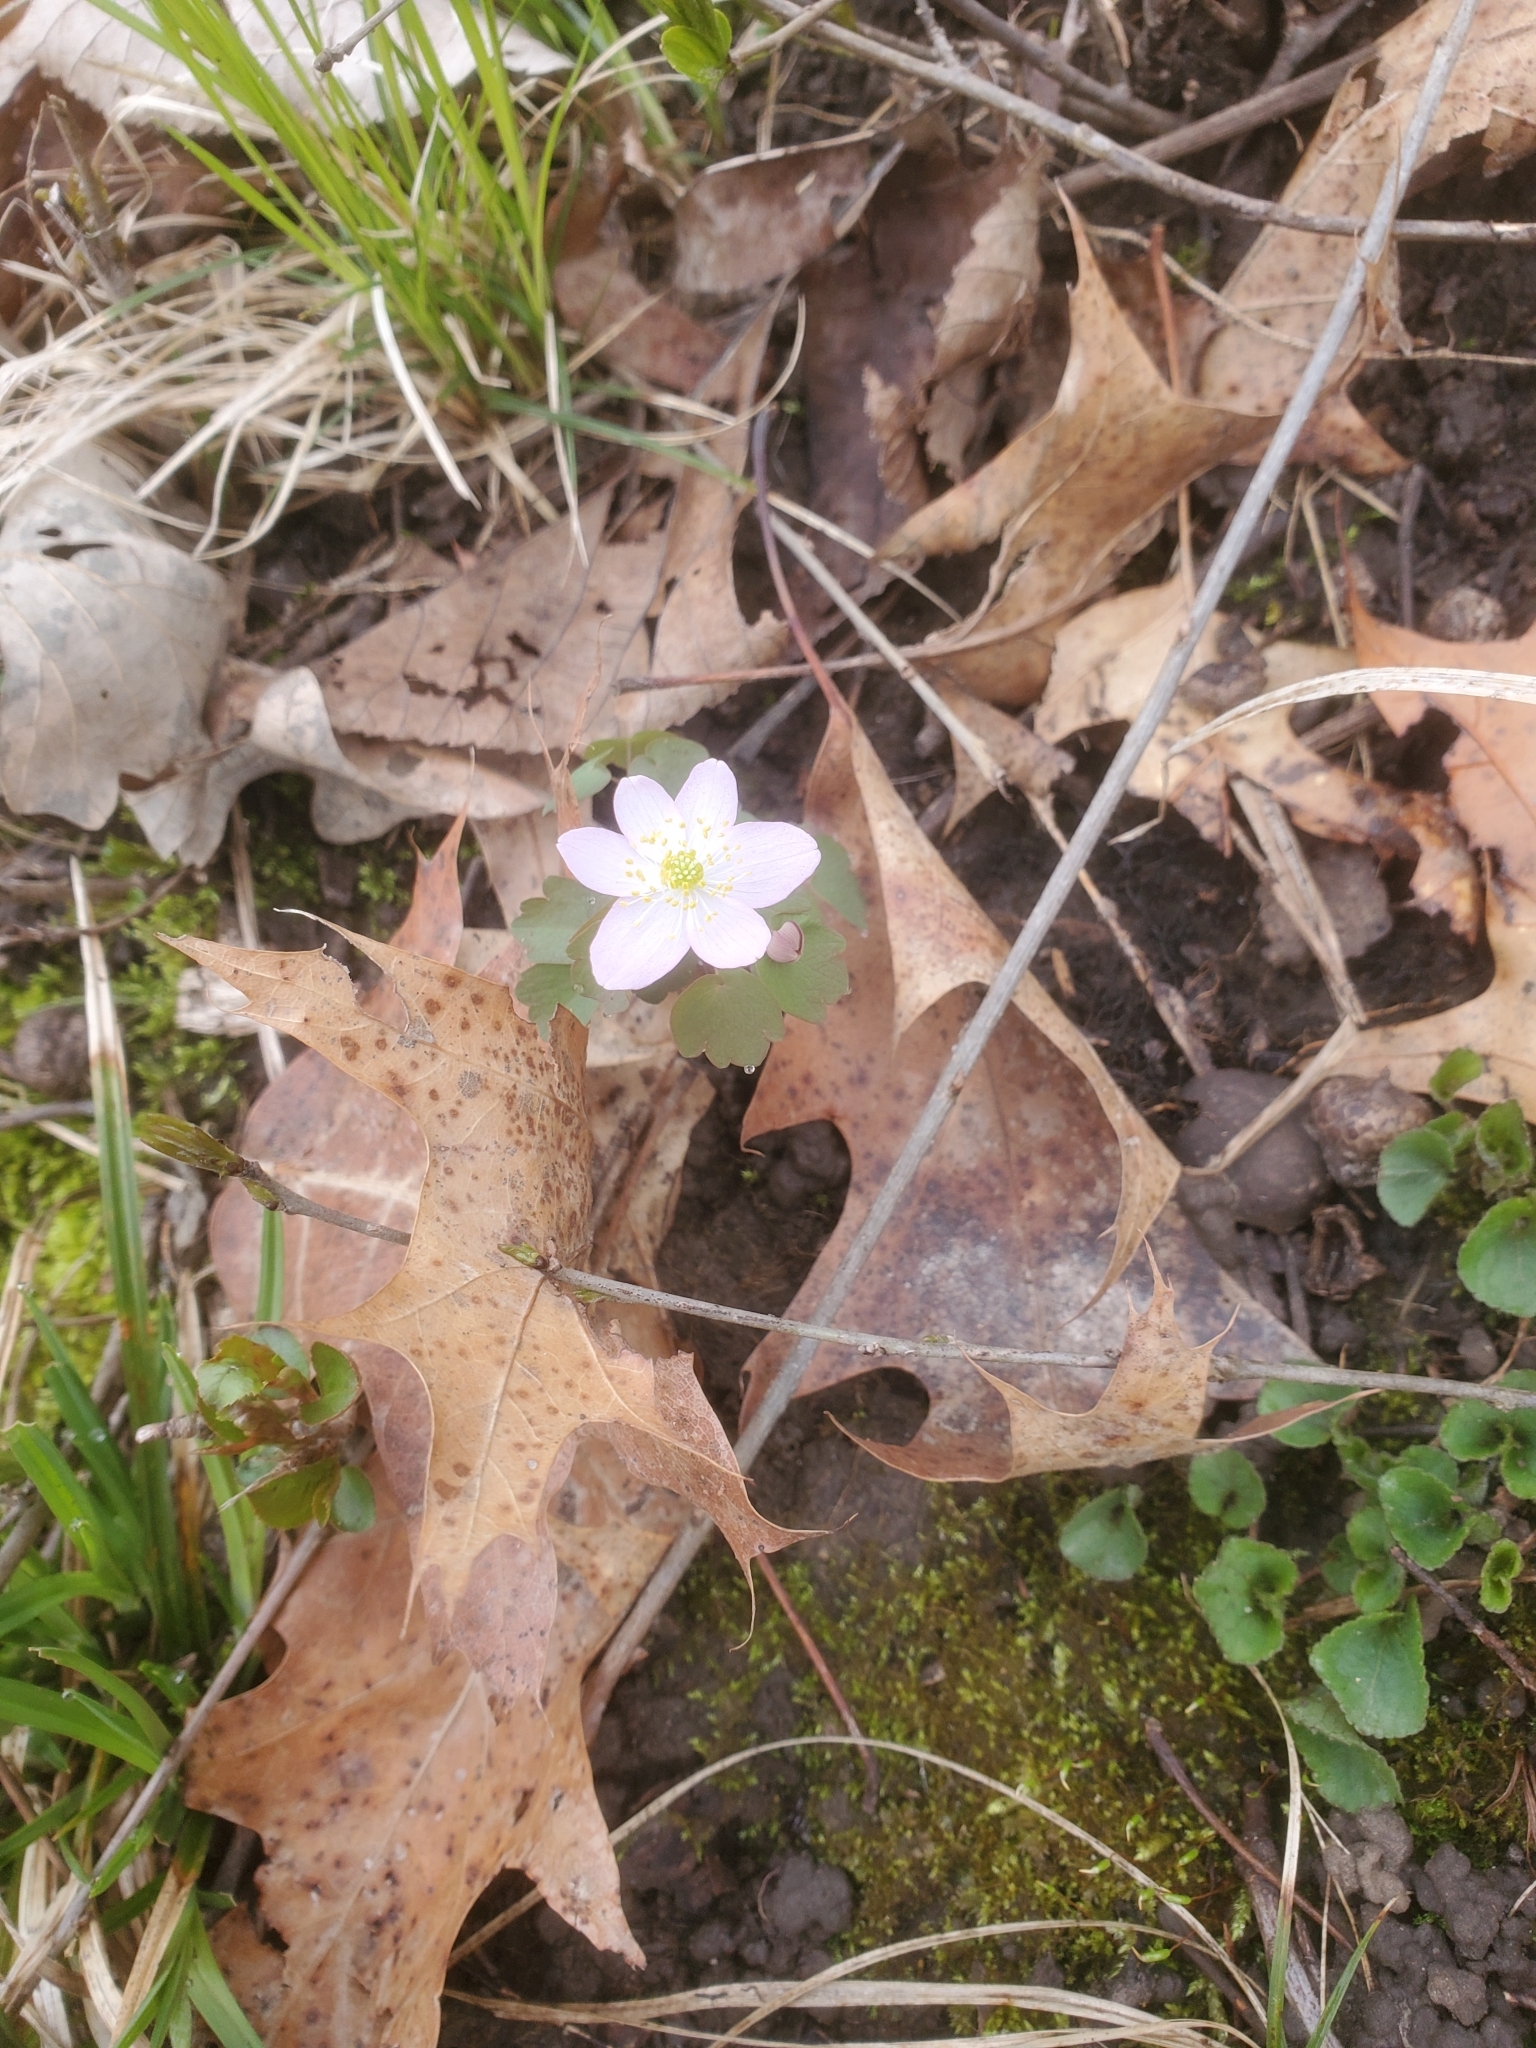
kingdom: Plantae
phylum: Tracheophyta
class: Magnoliopsida
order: Ranunculales
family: Ranunculaceae
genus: Thalictrum
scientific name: Thalictrum thalictroides
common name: Rue-anemone
